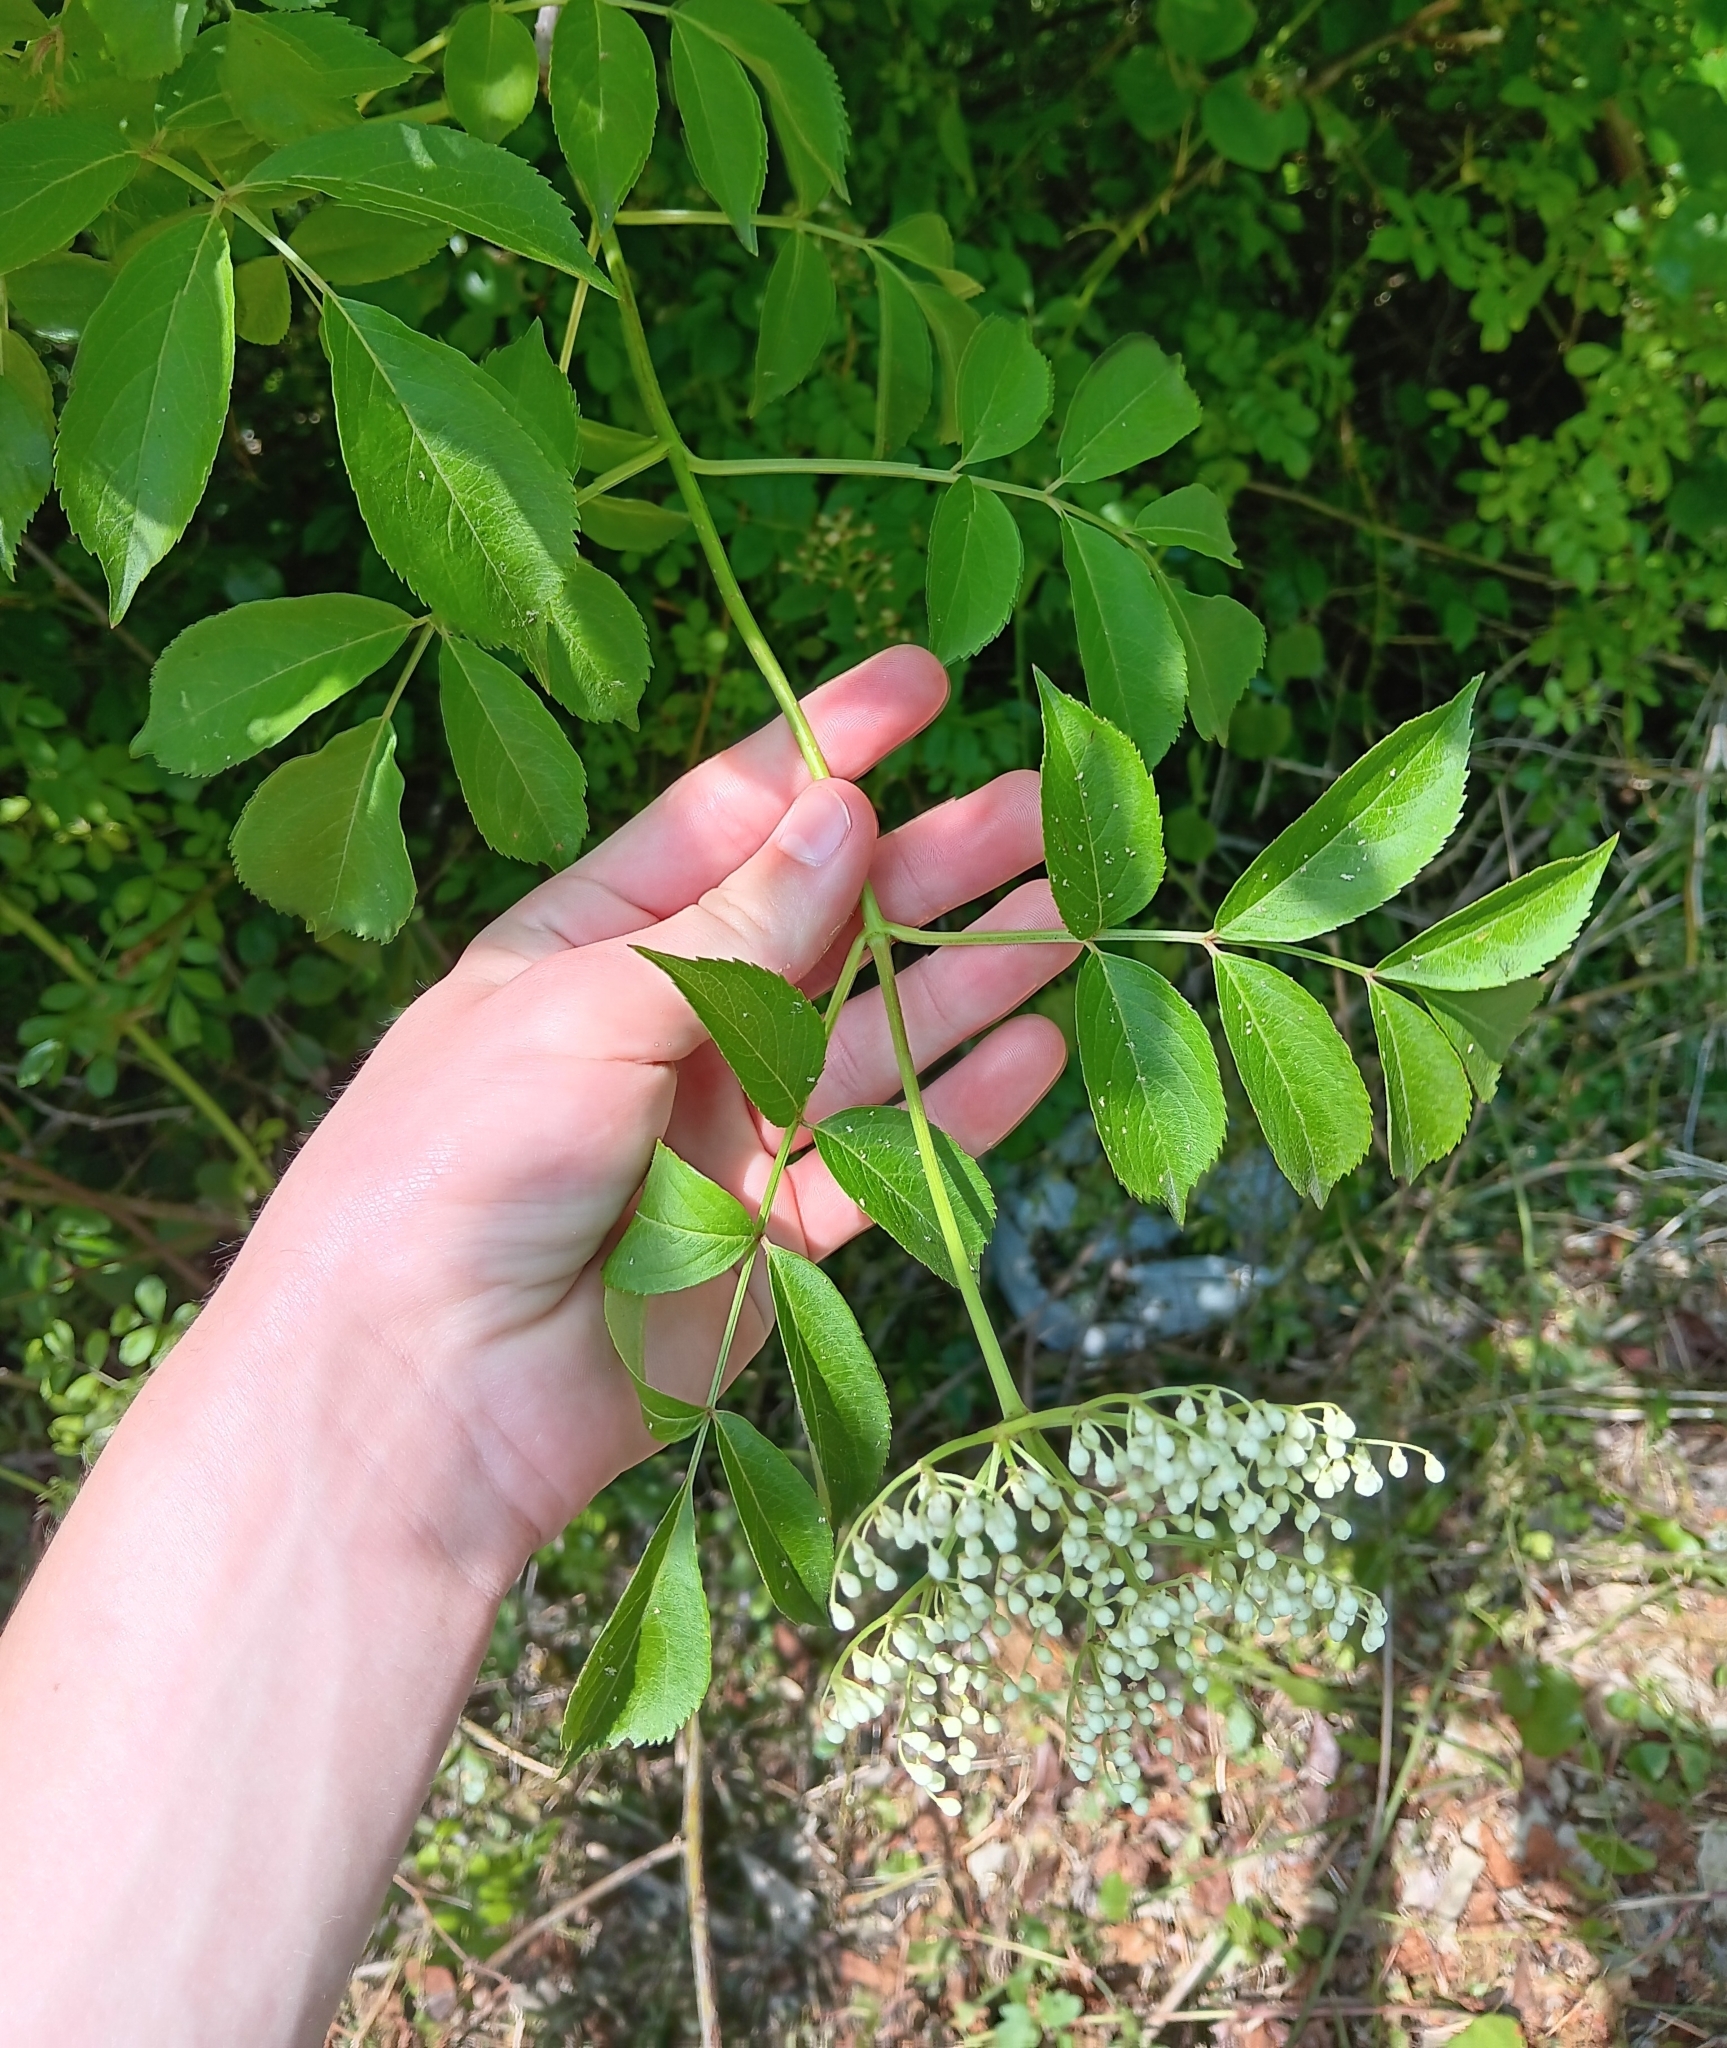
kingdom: Plantae
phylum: Tracheophyta
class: Magnoliopsida
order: Dipsacales
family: Viburnaceae
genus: Sambucus
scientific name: Sambucus canadensis
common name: American elder
